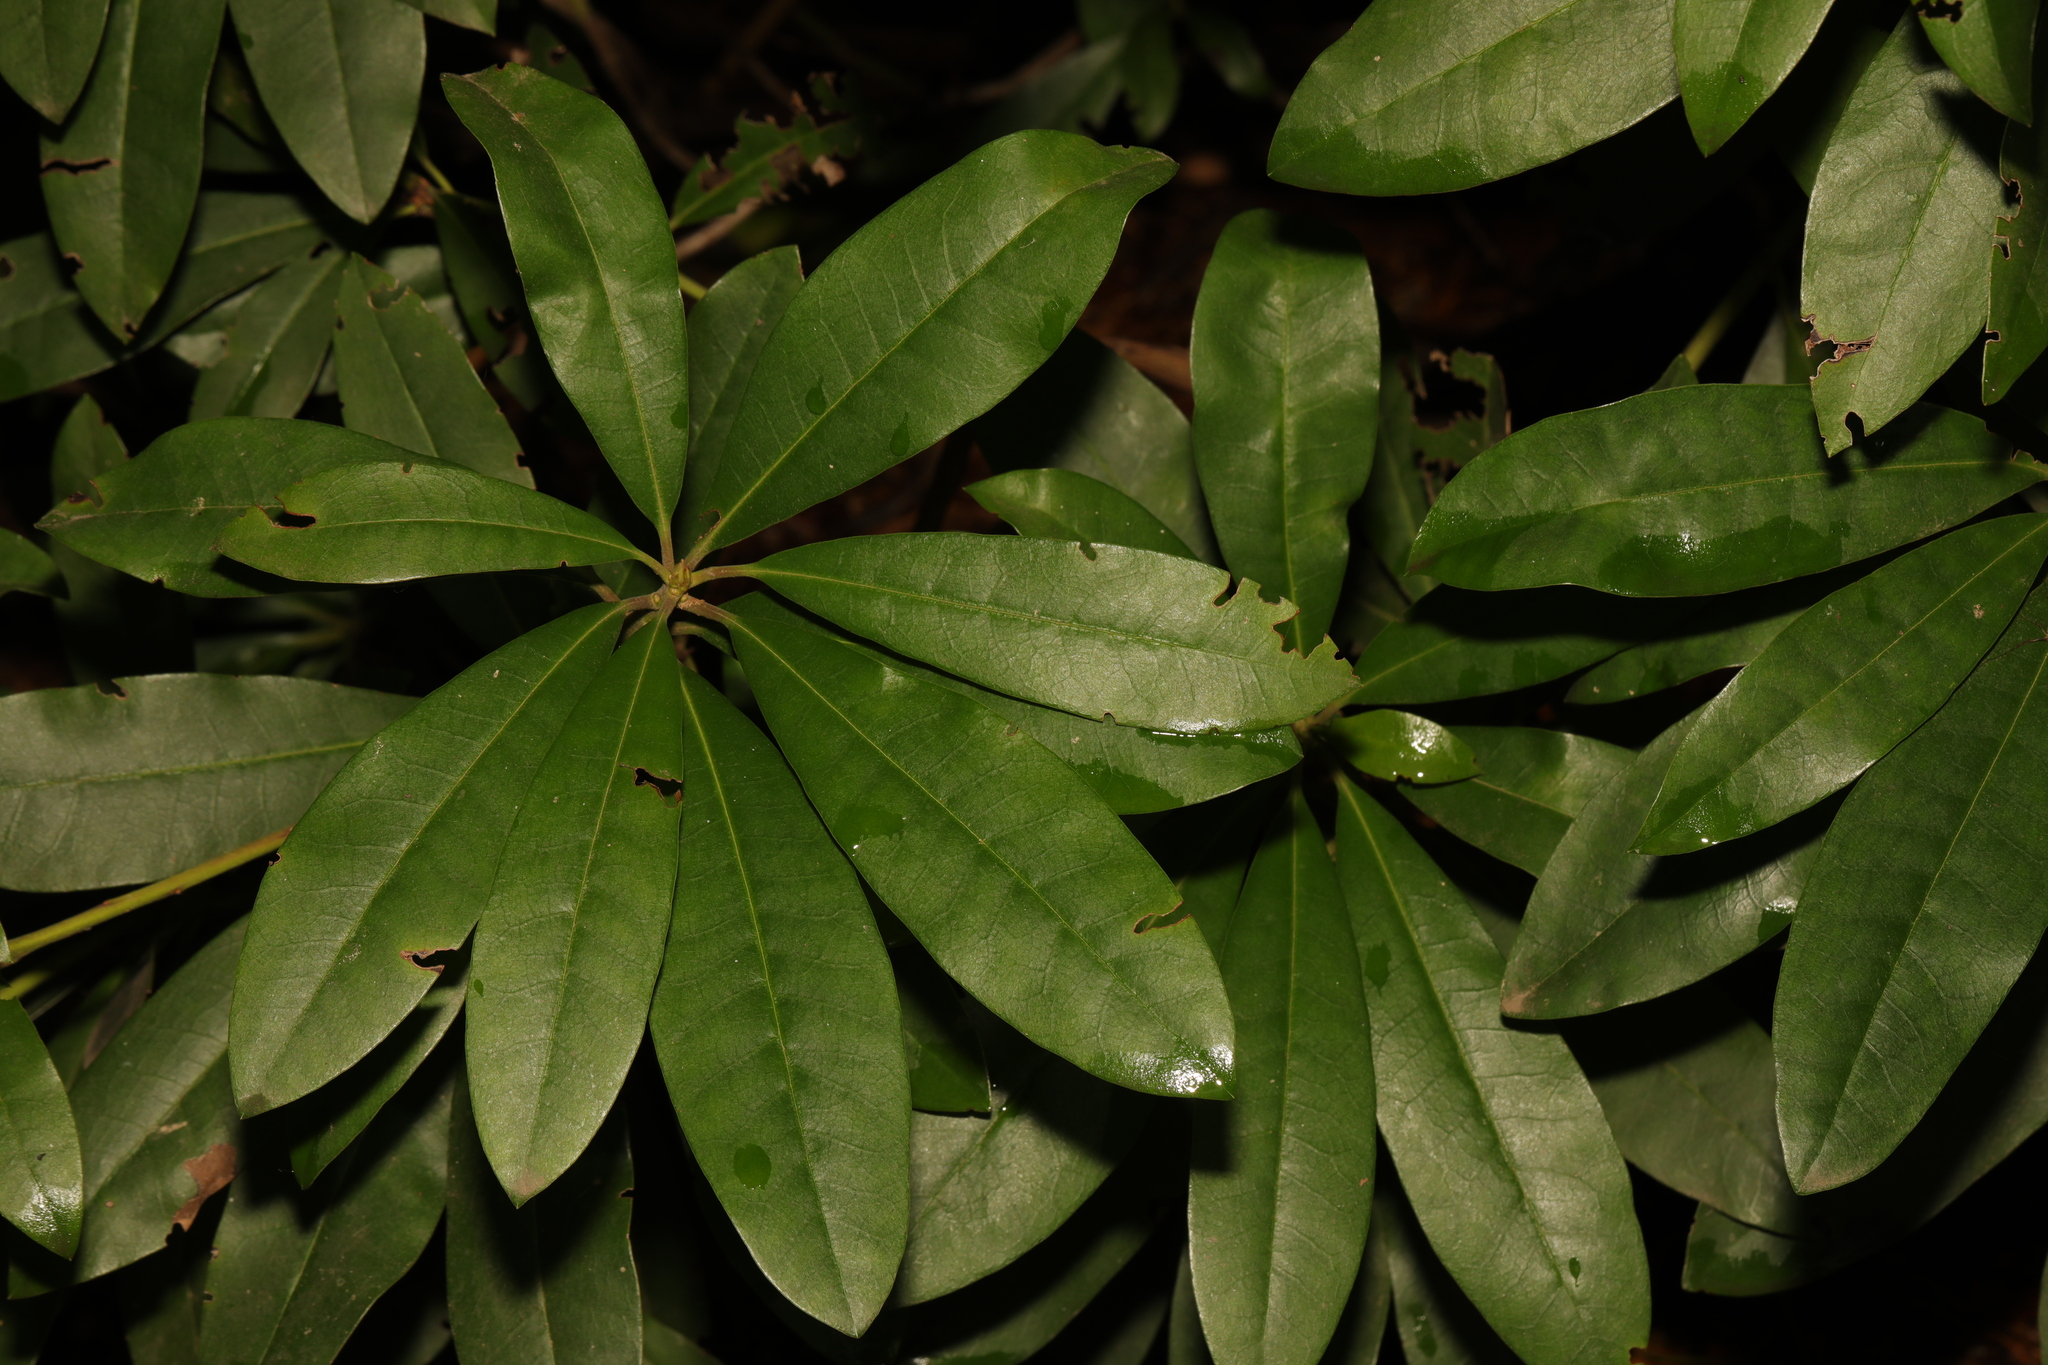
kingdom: Plantae
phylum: Tracheophyta
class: Magnoliopsida
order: Ericales
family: Ericaceae
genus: Rhododendron
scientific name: Rhododendron ponticum
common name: Rhododendron
